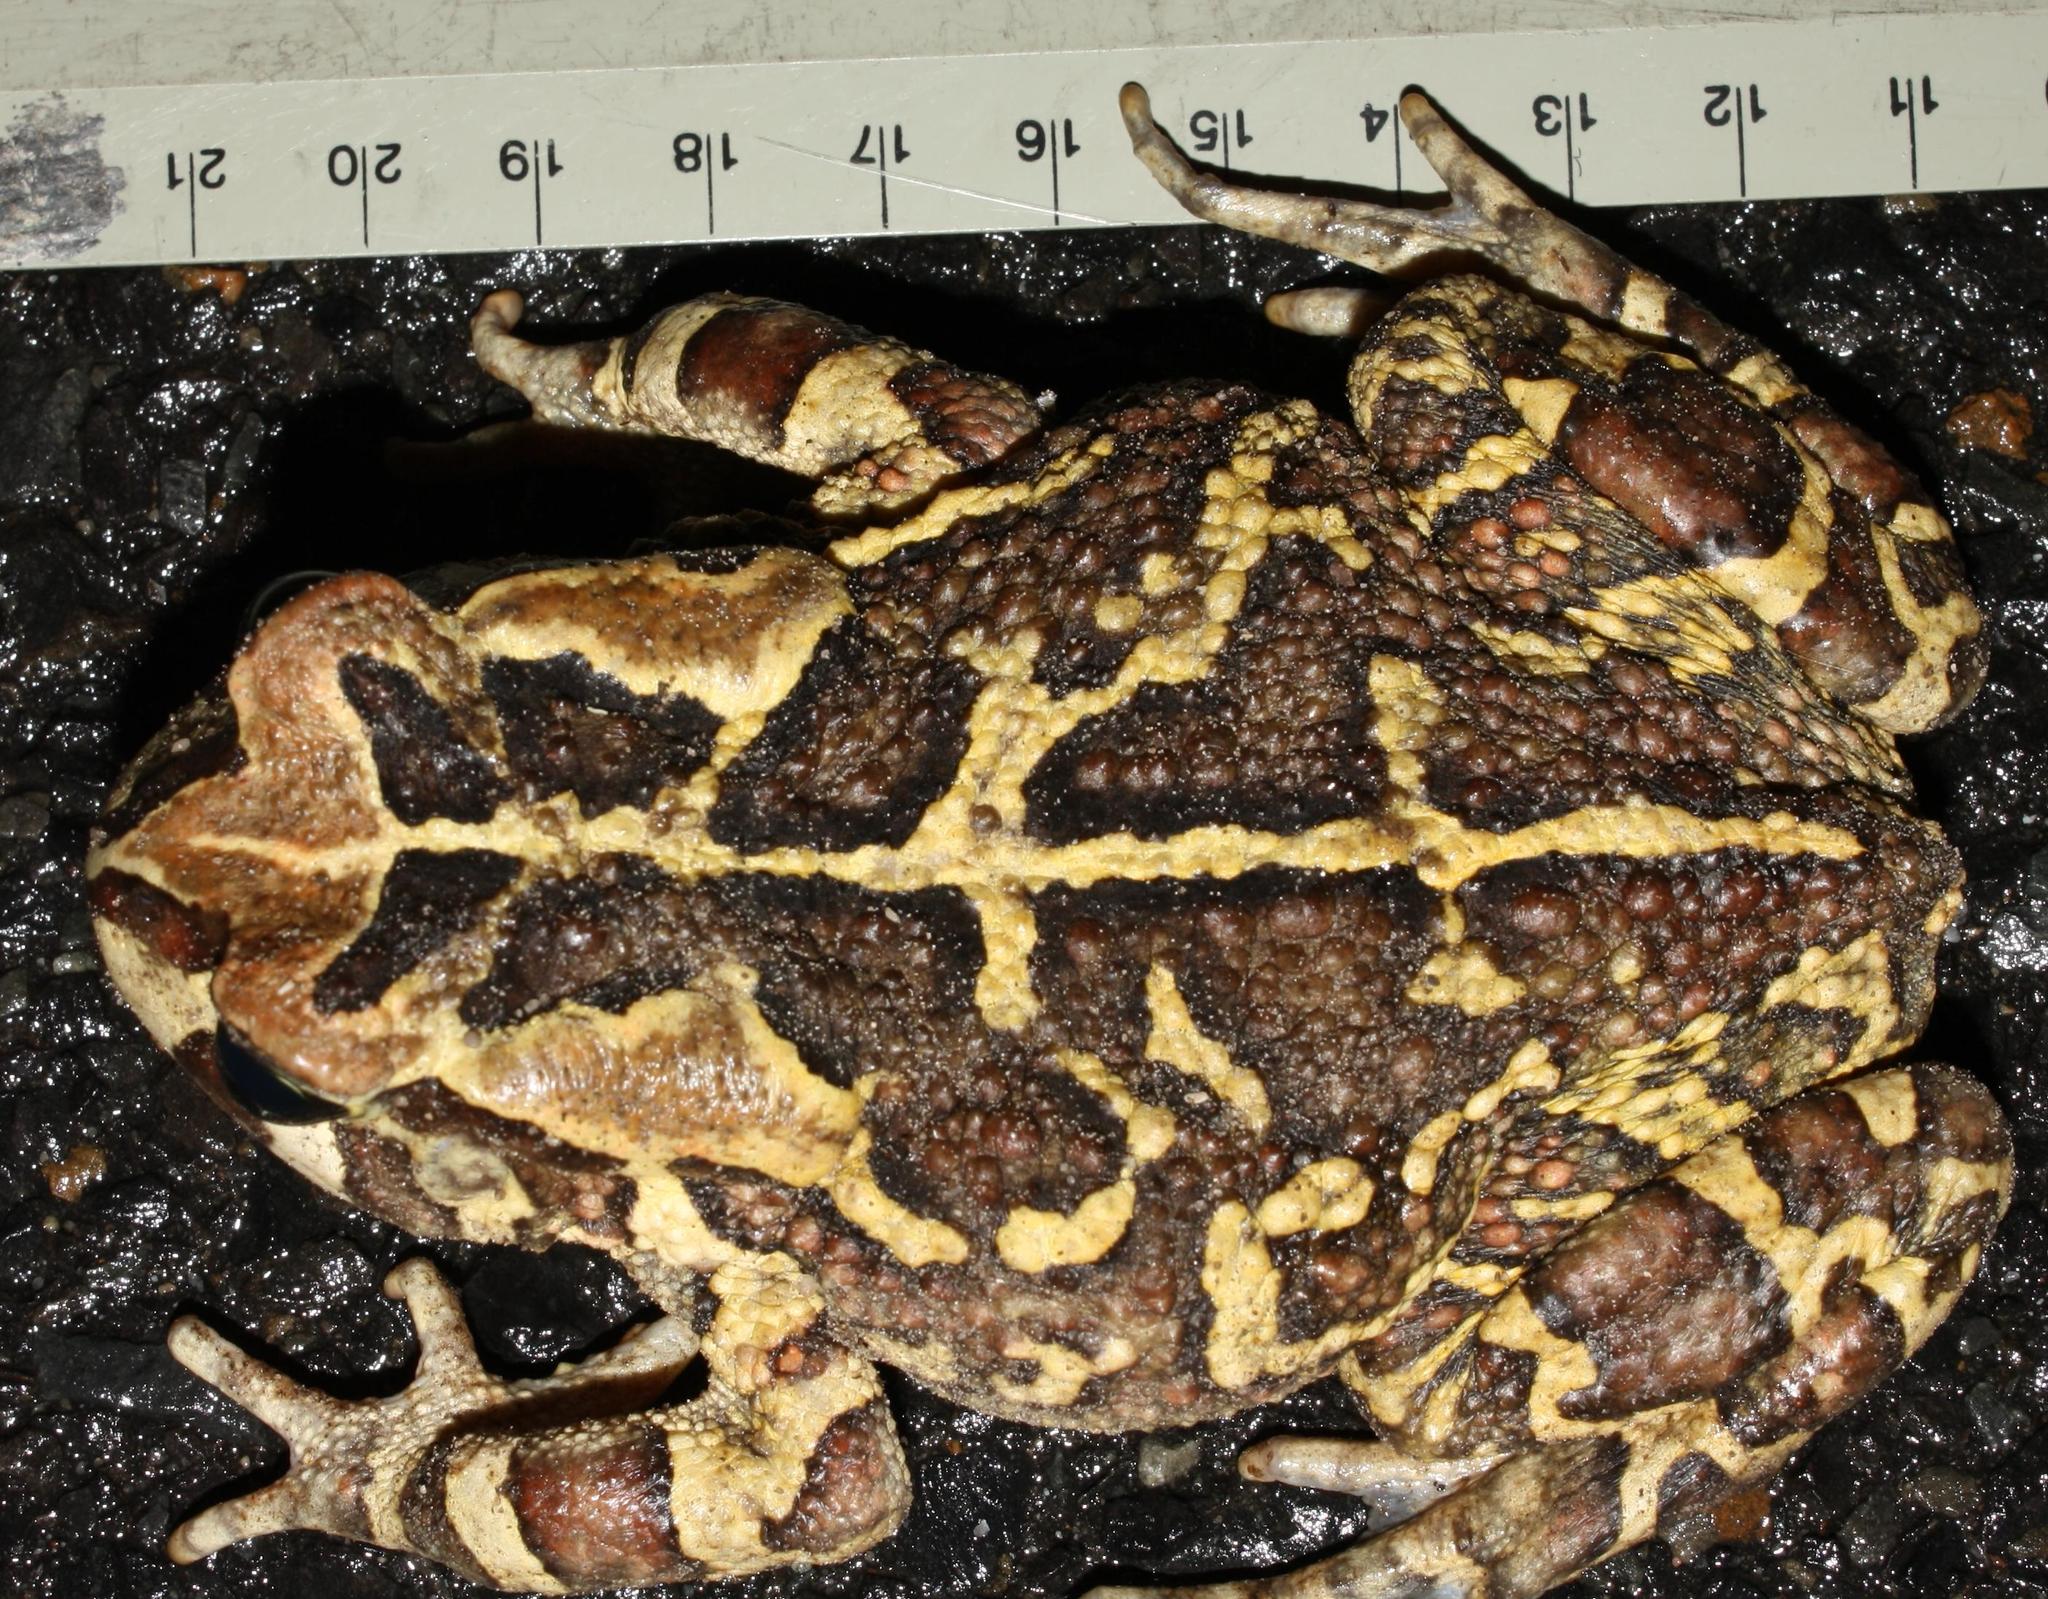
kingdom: Animalia
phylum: Chordata
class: Amphibia
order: Anura
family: Bufonidae
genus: Sclerophrys
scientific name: Sclerophrys pantherina
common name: Panther toad
